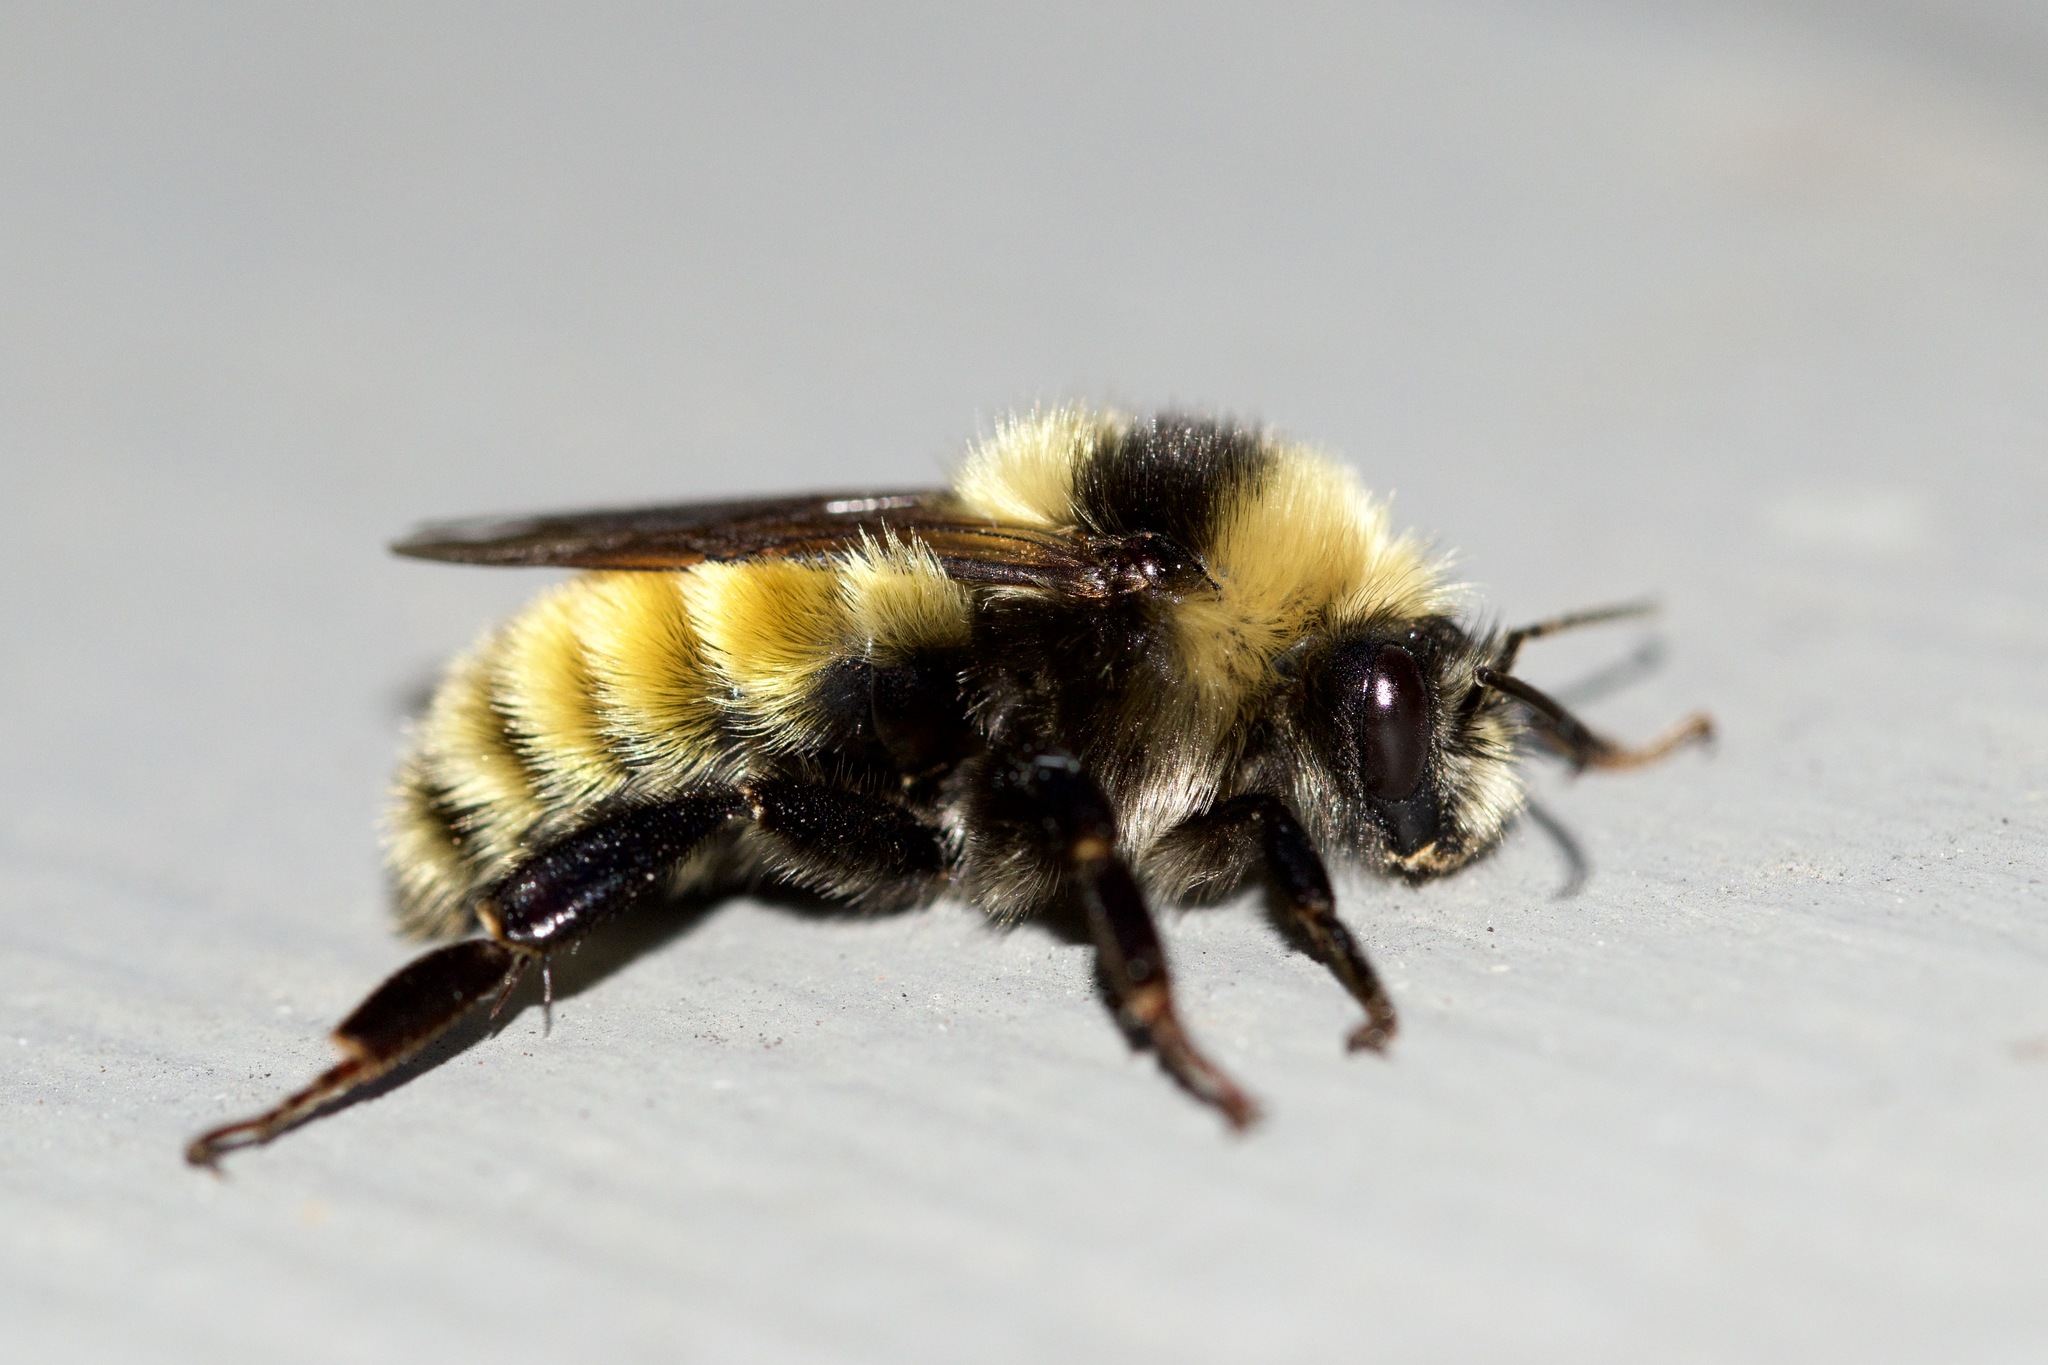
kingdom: Animalia
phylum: Arthropoda
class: Insecta
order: Hymenoptera
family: Apidae
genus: Bombus
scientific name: Bombus borealis
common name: Northern amber bumble bee
